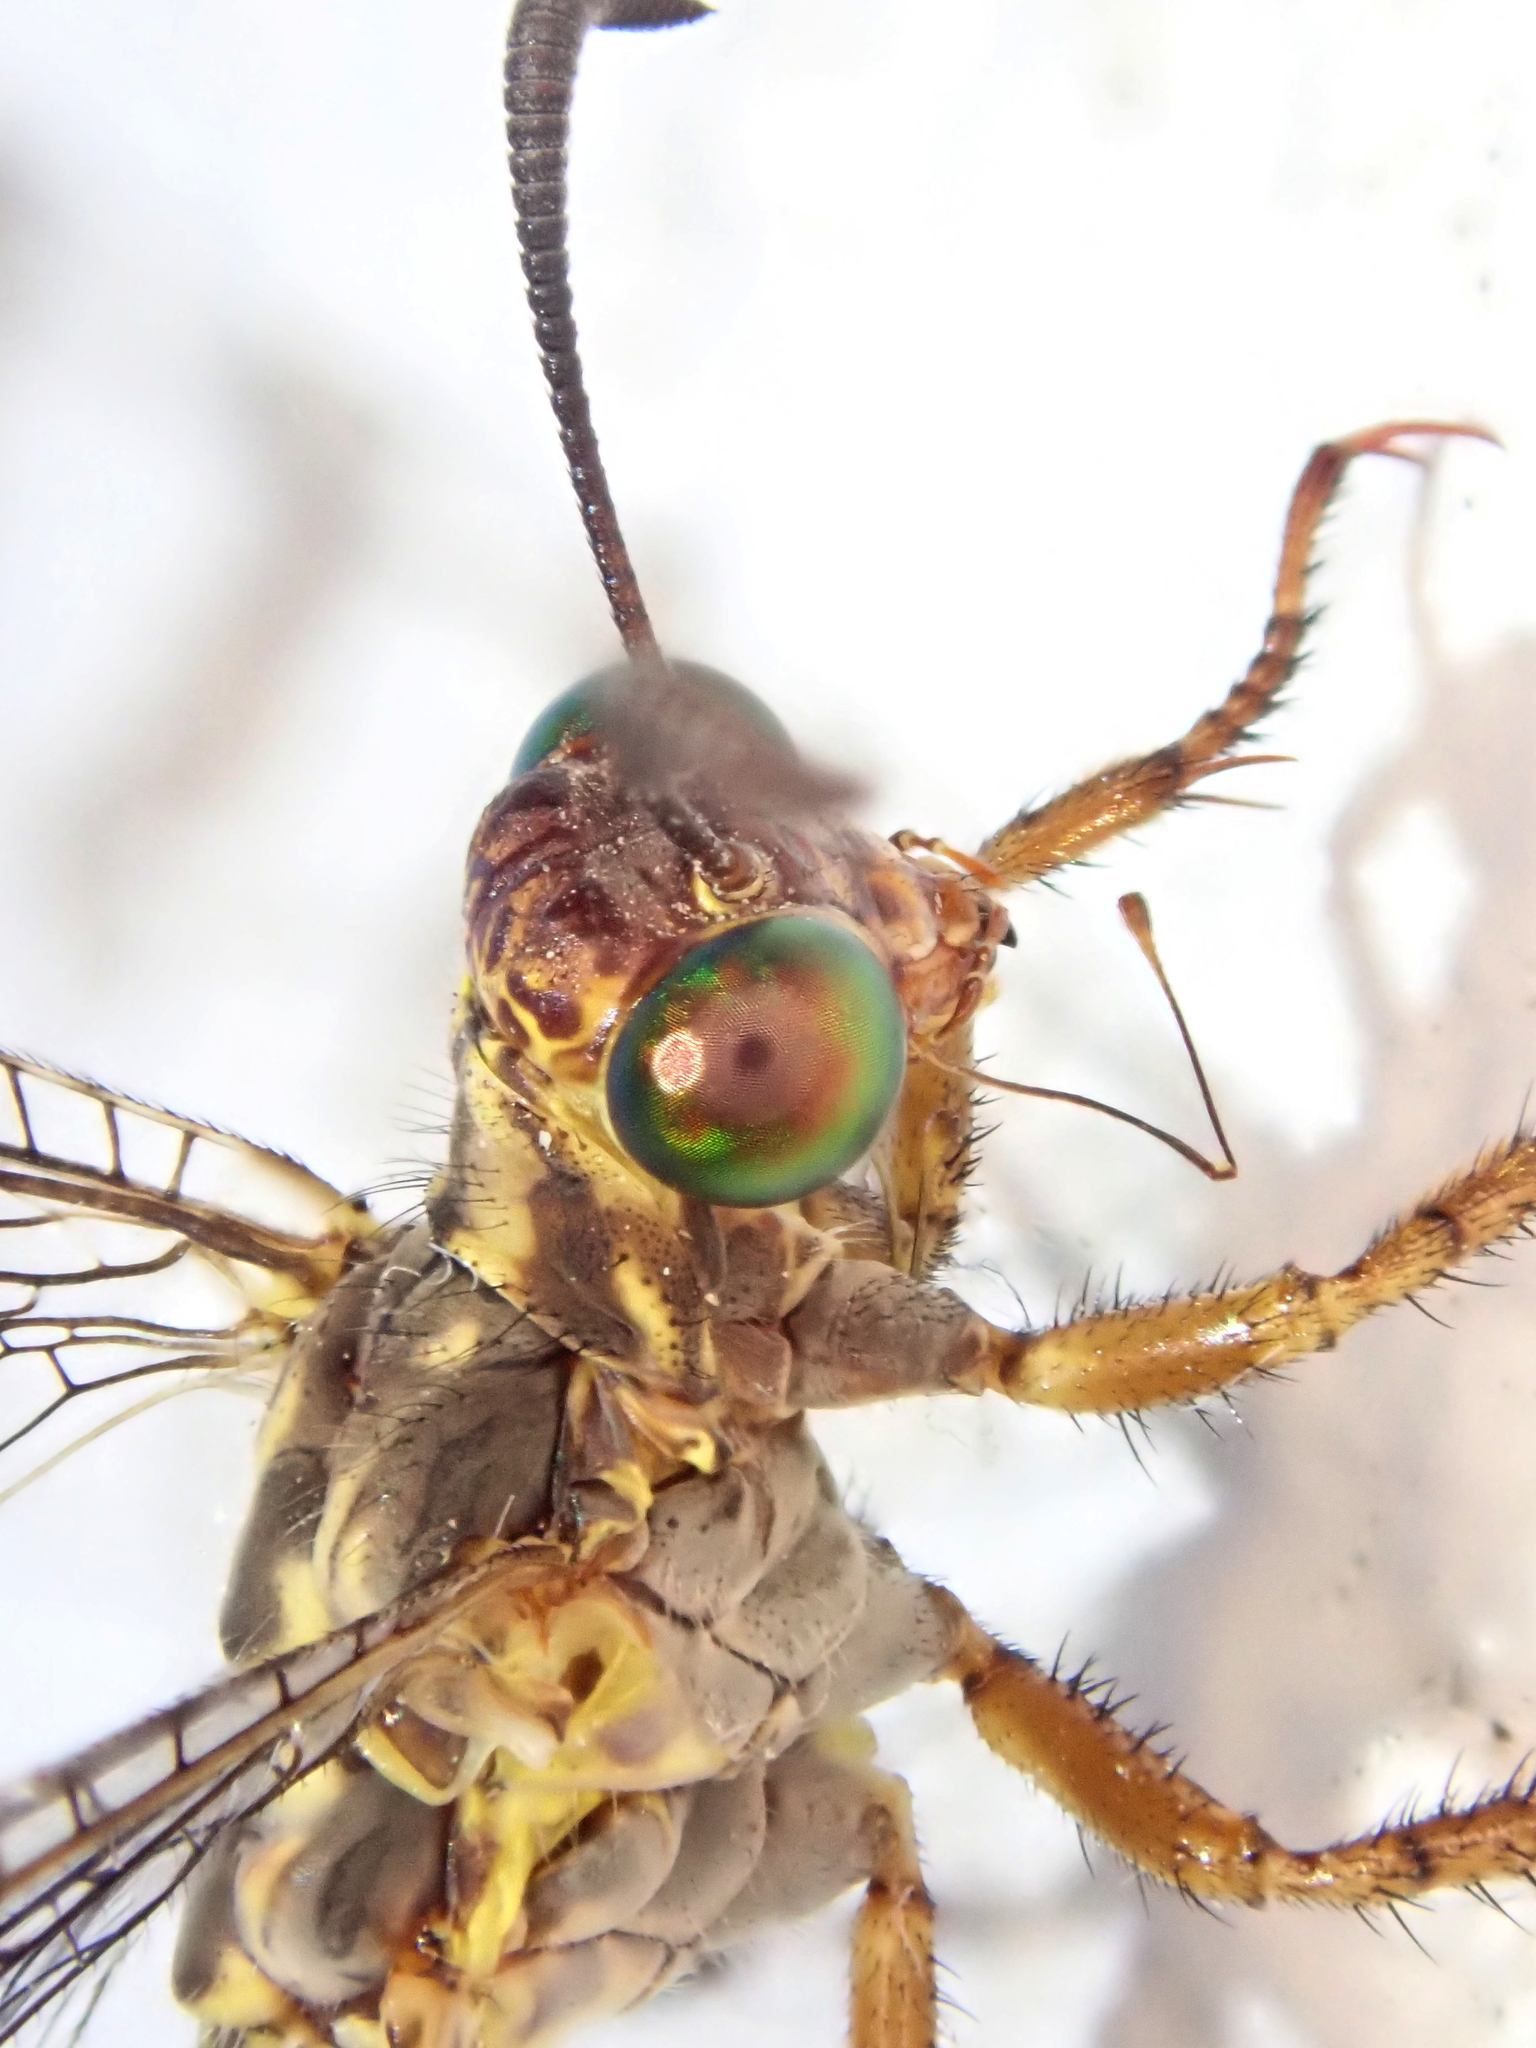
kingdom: Animalia
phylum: Arthropoda
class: Insecta
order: Neuroptera
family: Myrmeleontidae
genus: Dimares
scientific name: Dimares elegans
